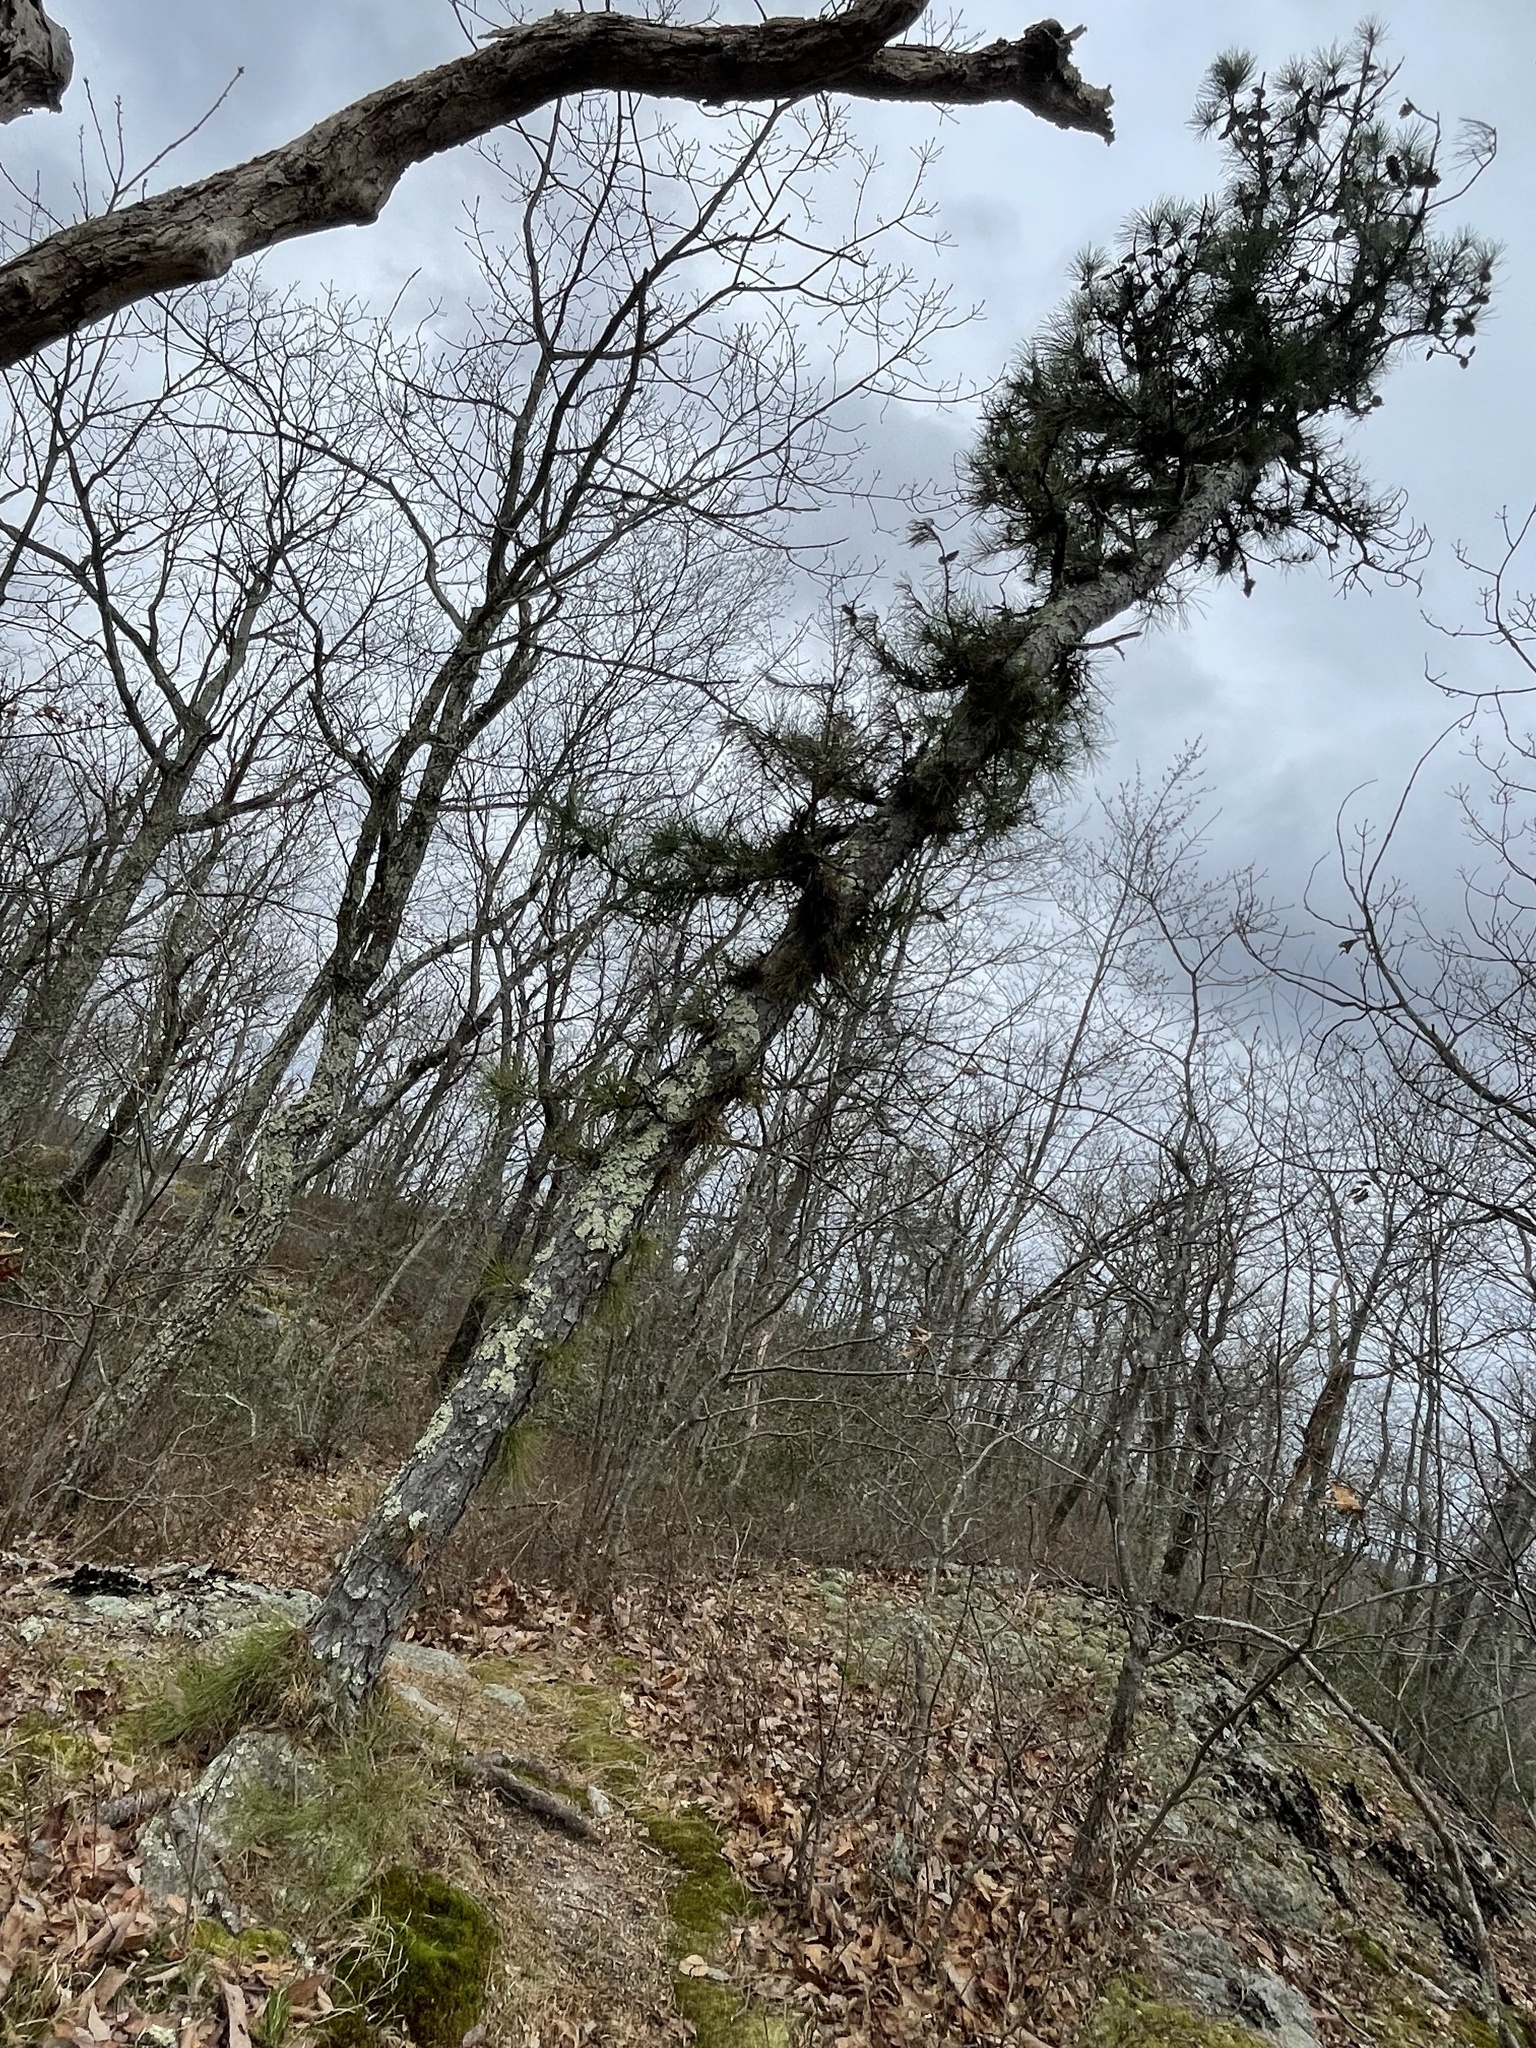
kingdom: Plantae
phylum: Tracheophyta
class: Pinopsida
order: Pinales
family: Pinaceae
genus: Pinus
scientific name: Pinus rigida
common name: Pitch pine
